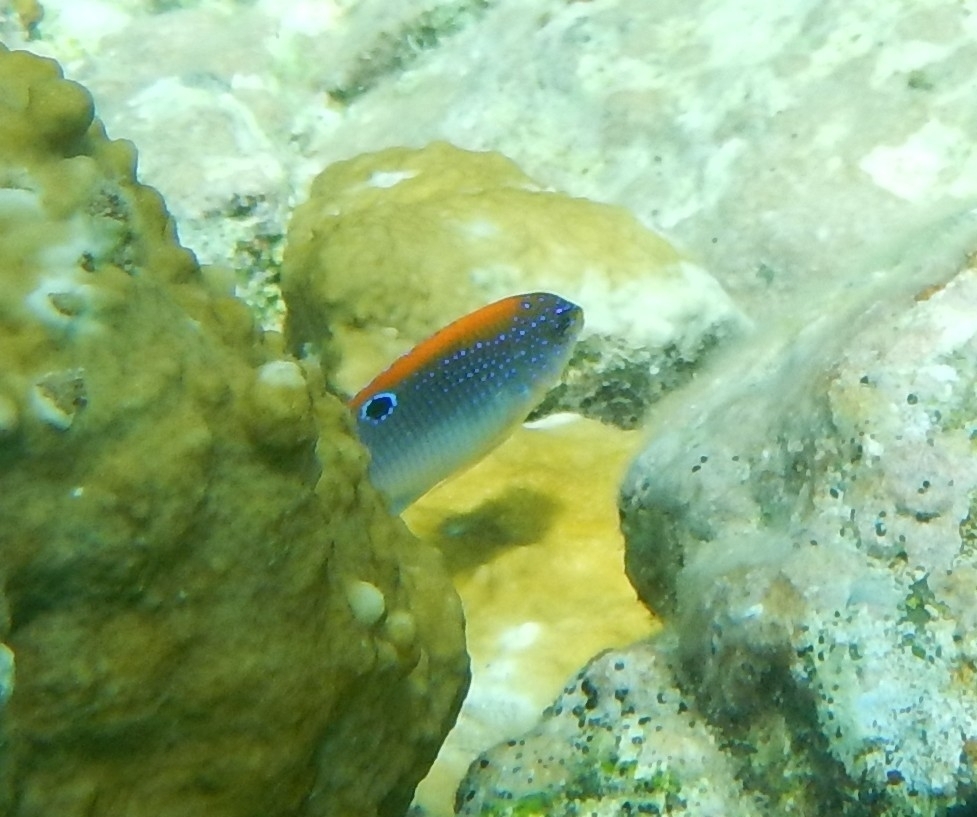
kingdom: Animalia
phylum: Chordata
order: Perciformes
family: Pomacentridae
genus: Stegastes
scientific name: Stegastes adustus
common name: Dusky damselfish
